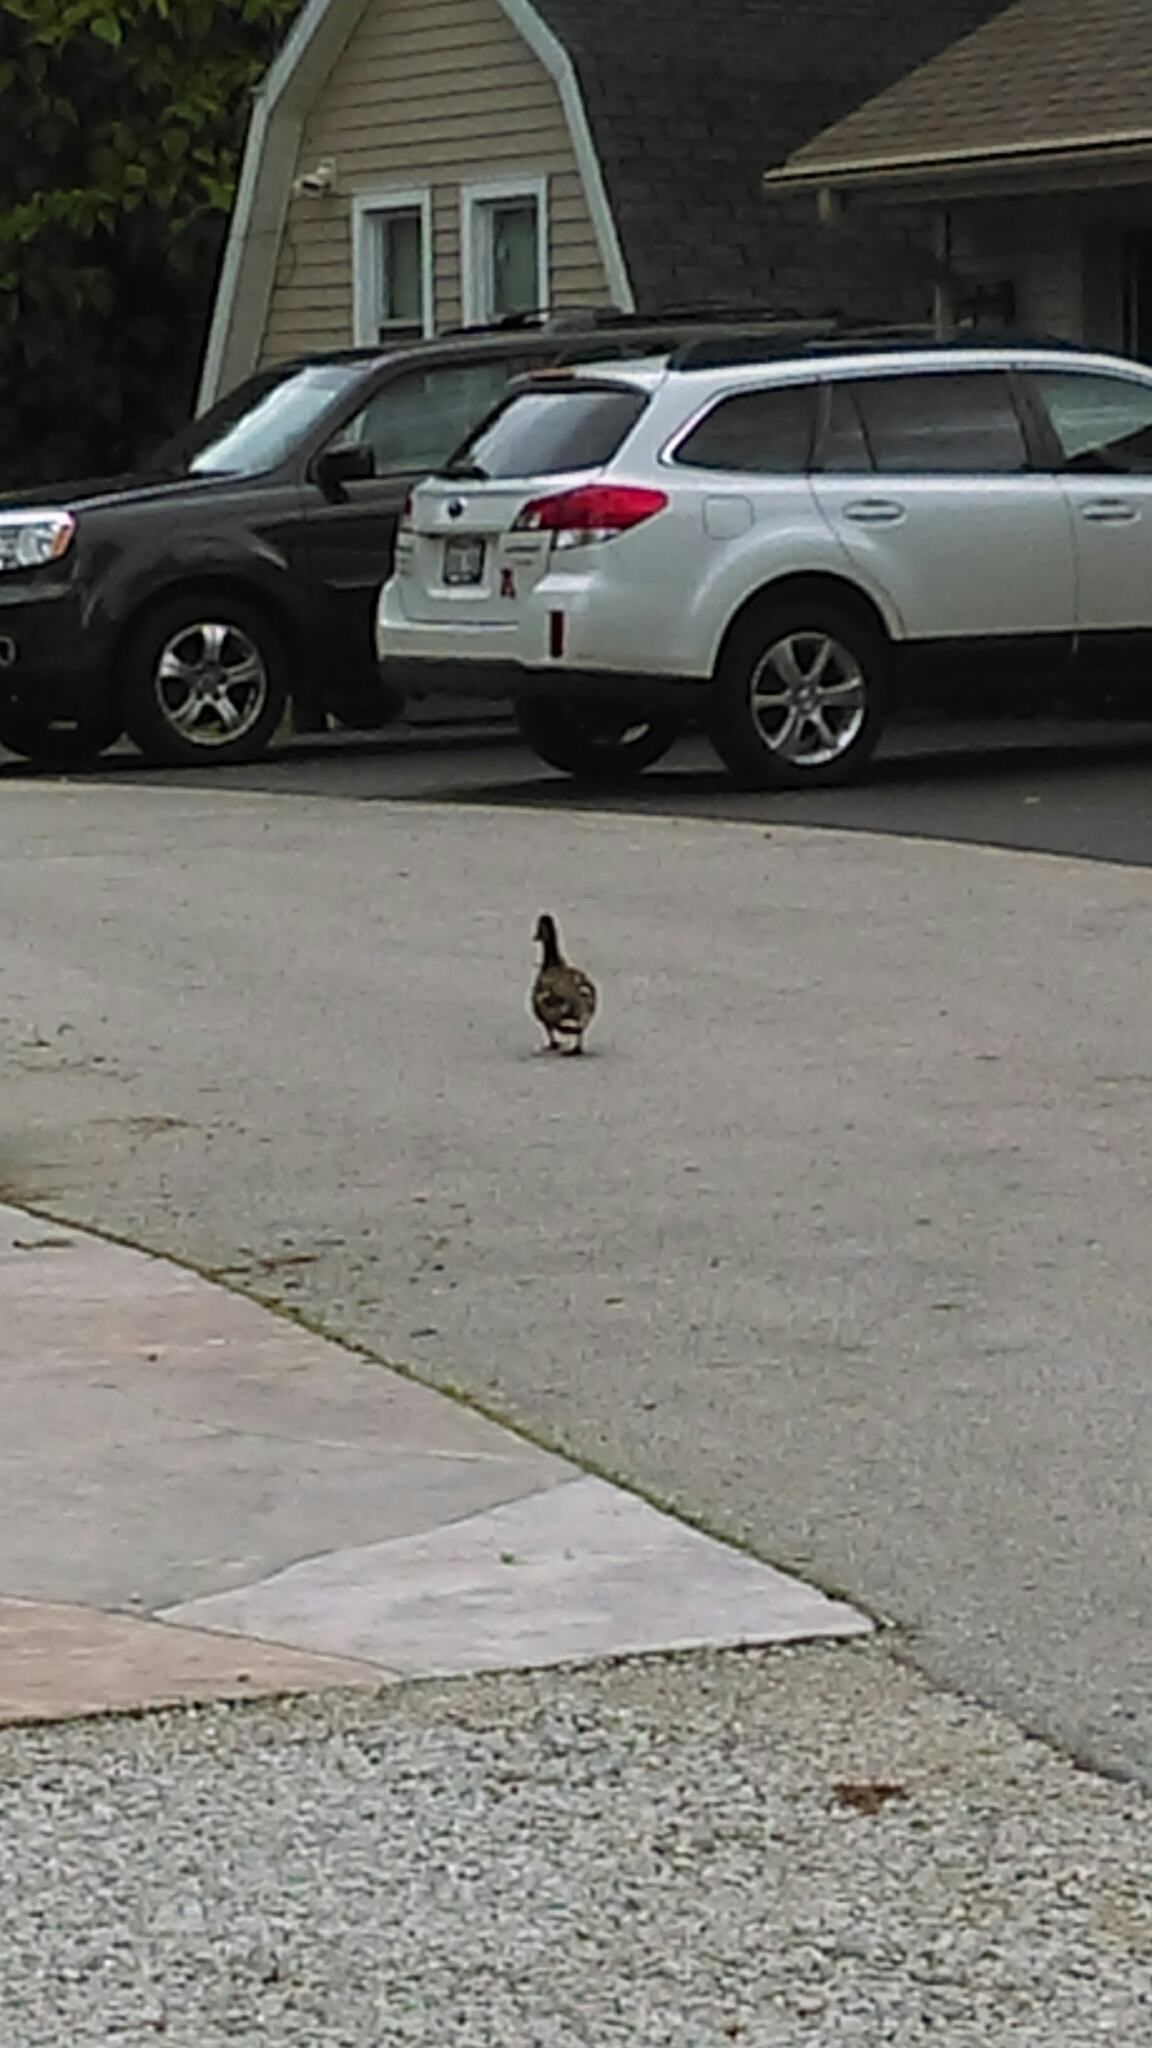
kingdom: Animalia
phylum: Chordata
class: Aves
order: Anseriformes
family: Anatidae
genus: Anas
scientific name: Anas platyrhynchos
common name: Mallard
